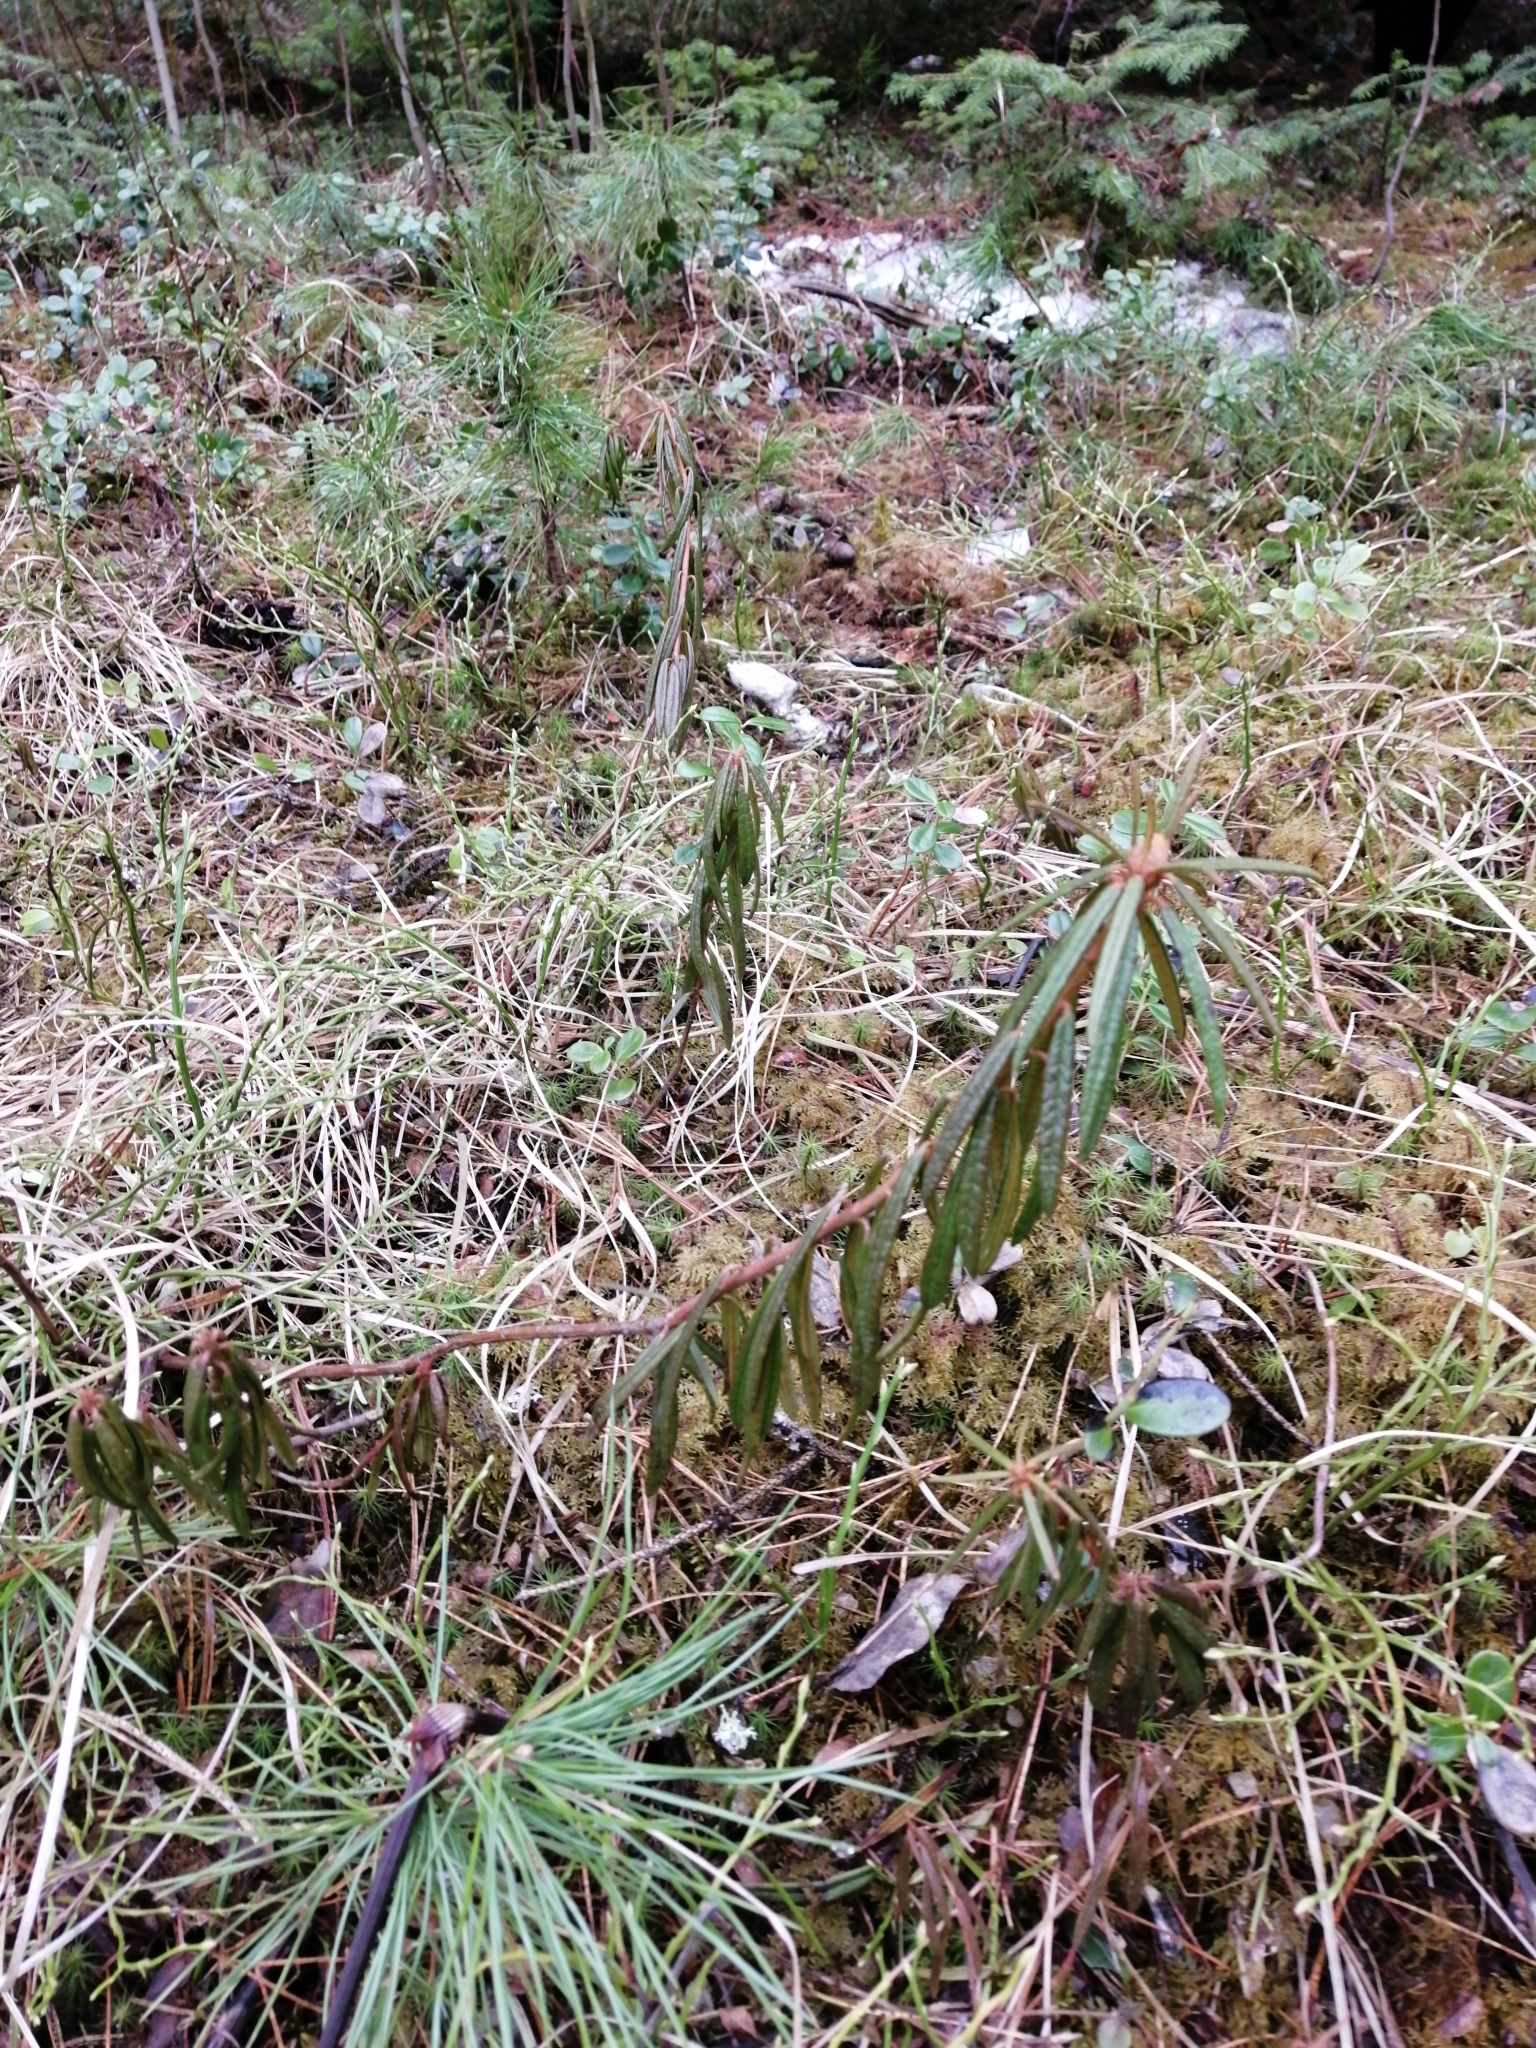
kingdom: Plantae
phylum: Tracheophyta
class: Magnoliopsida
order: Ericales
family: Ericaceae
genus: Rhododendron
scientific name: Rhododendron tomentosum
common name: Marsh labrador tea
